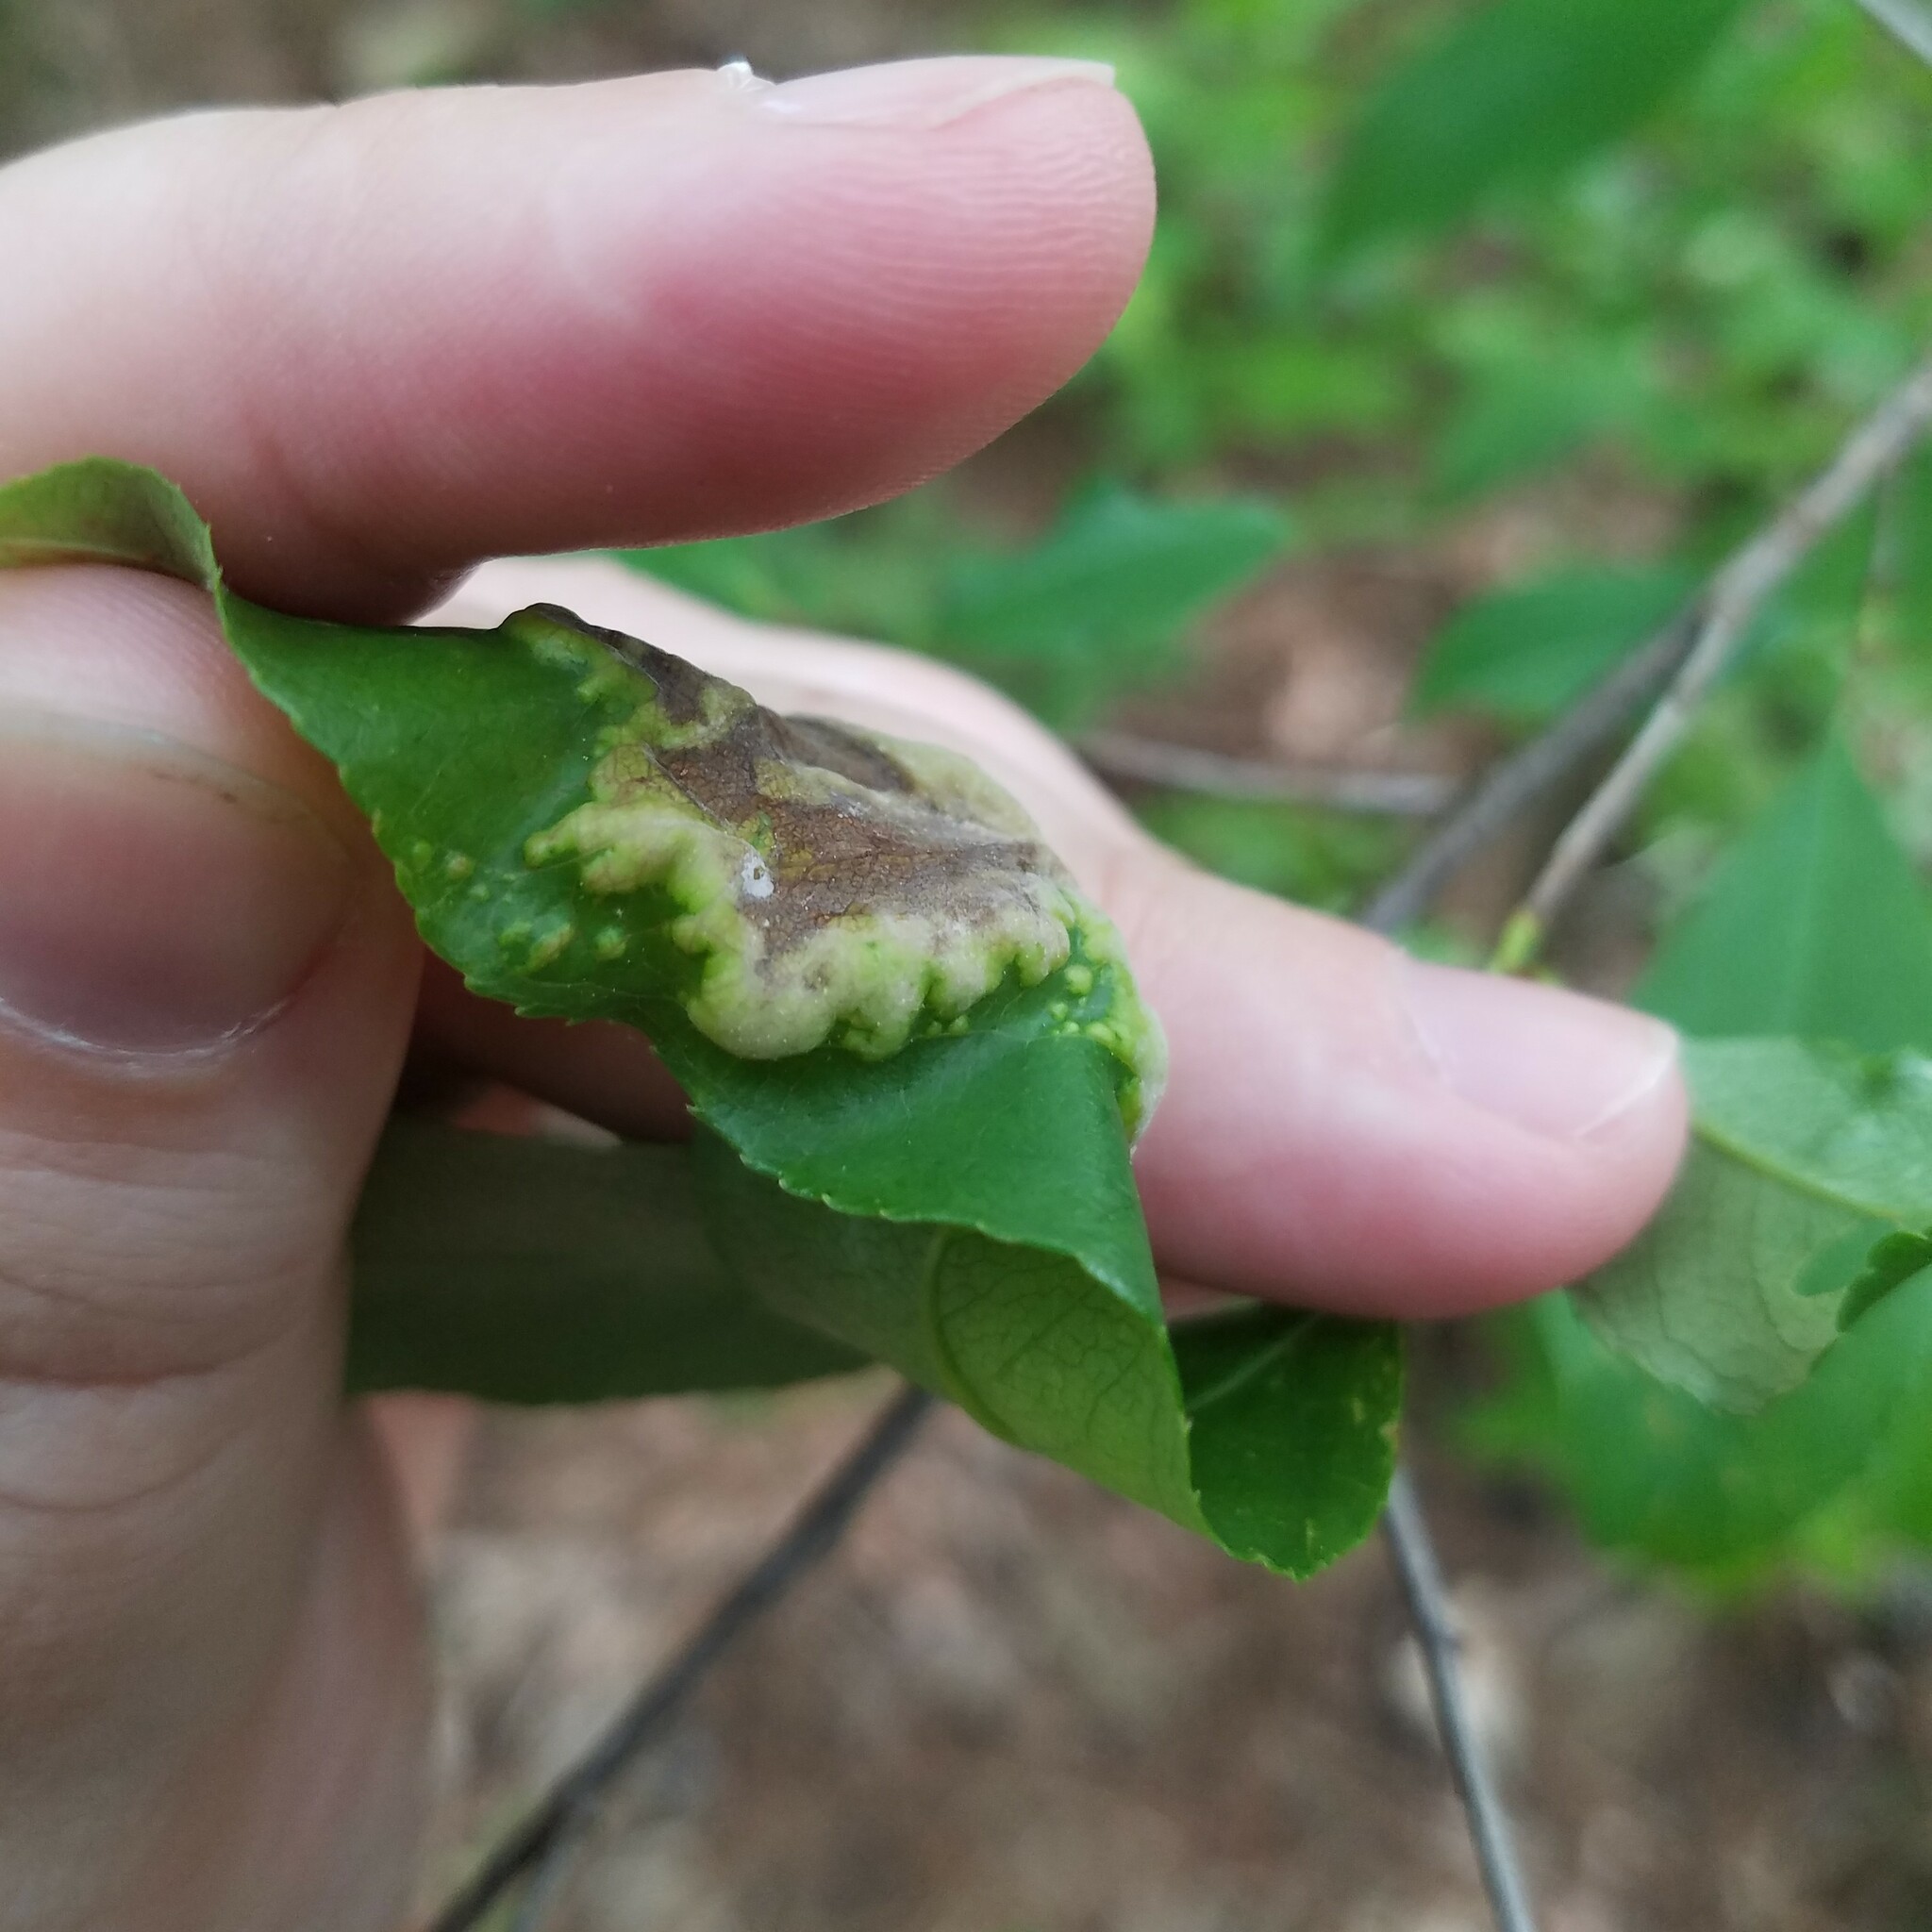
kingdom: Fungi
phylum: Ascomycota
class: Taphrinomycetes
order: Taphrinales
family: Taphrinaceae
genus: Taphrina
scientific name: Taphrina farlowii
